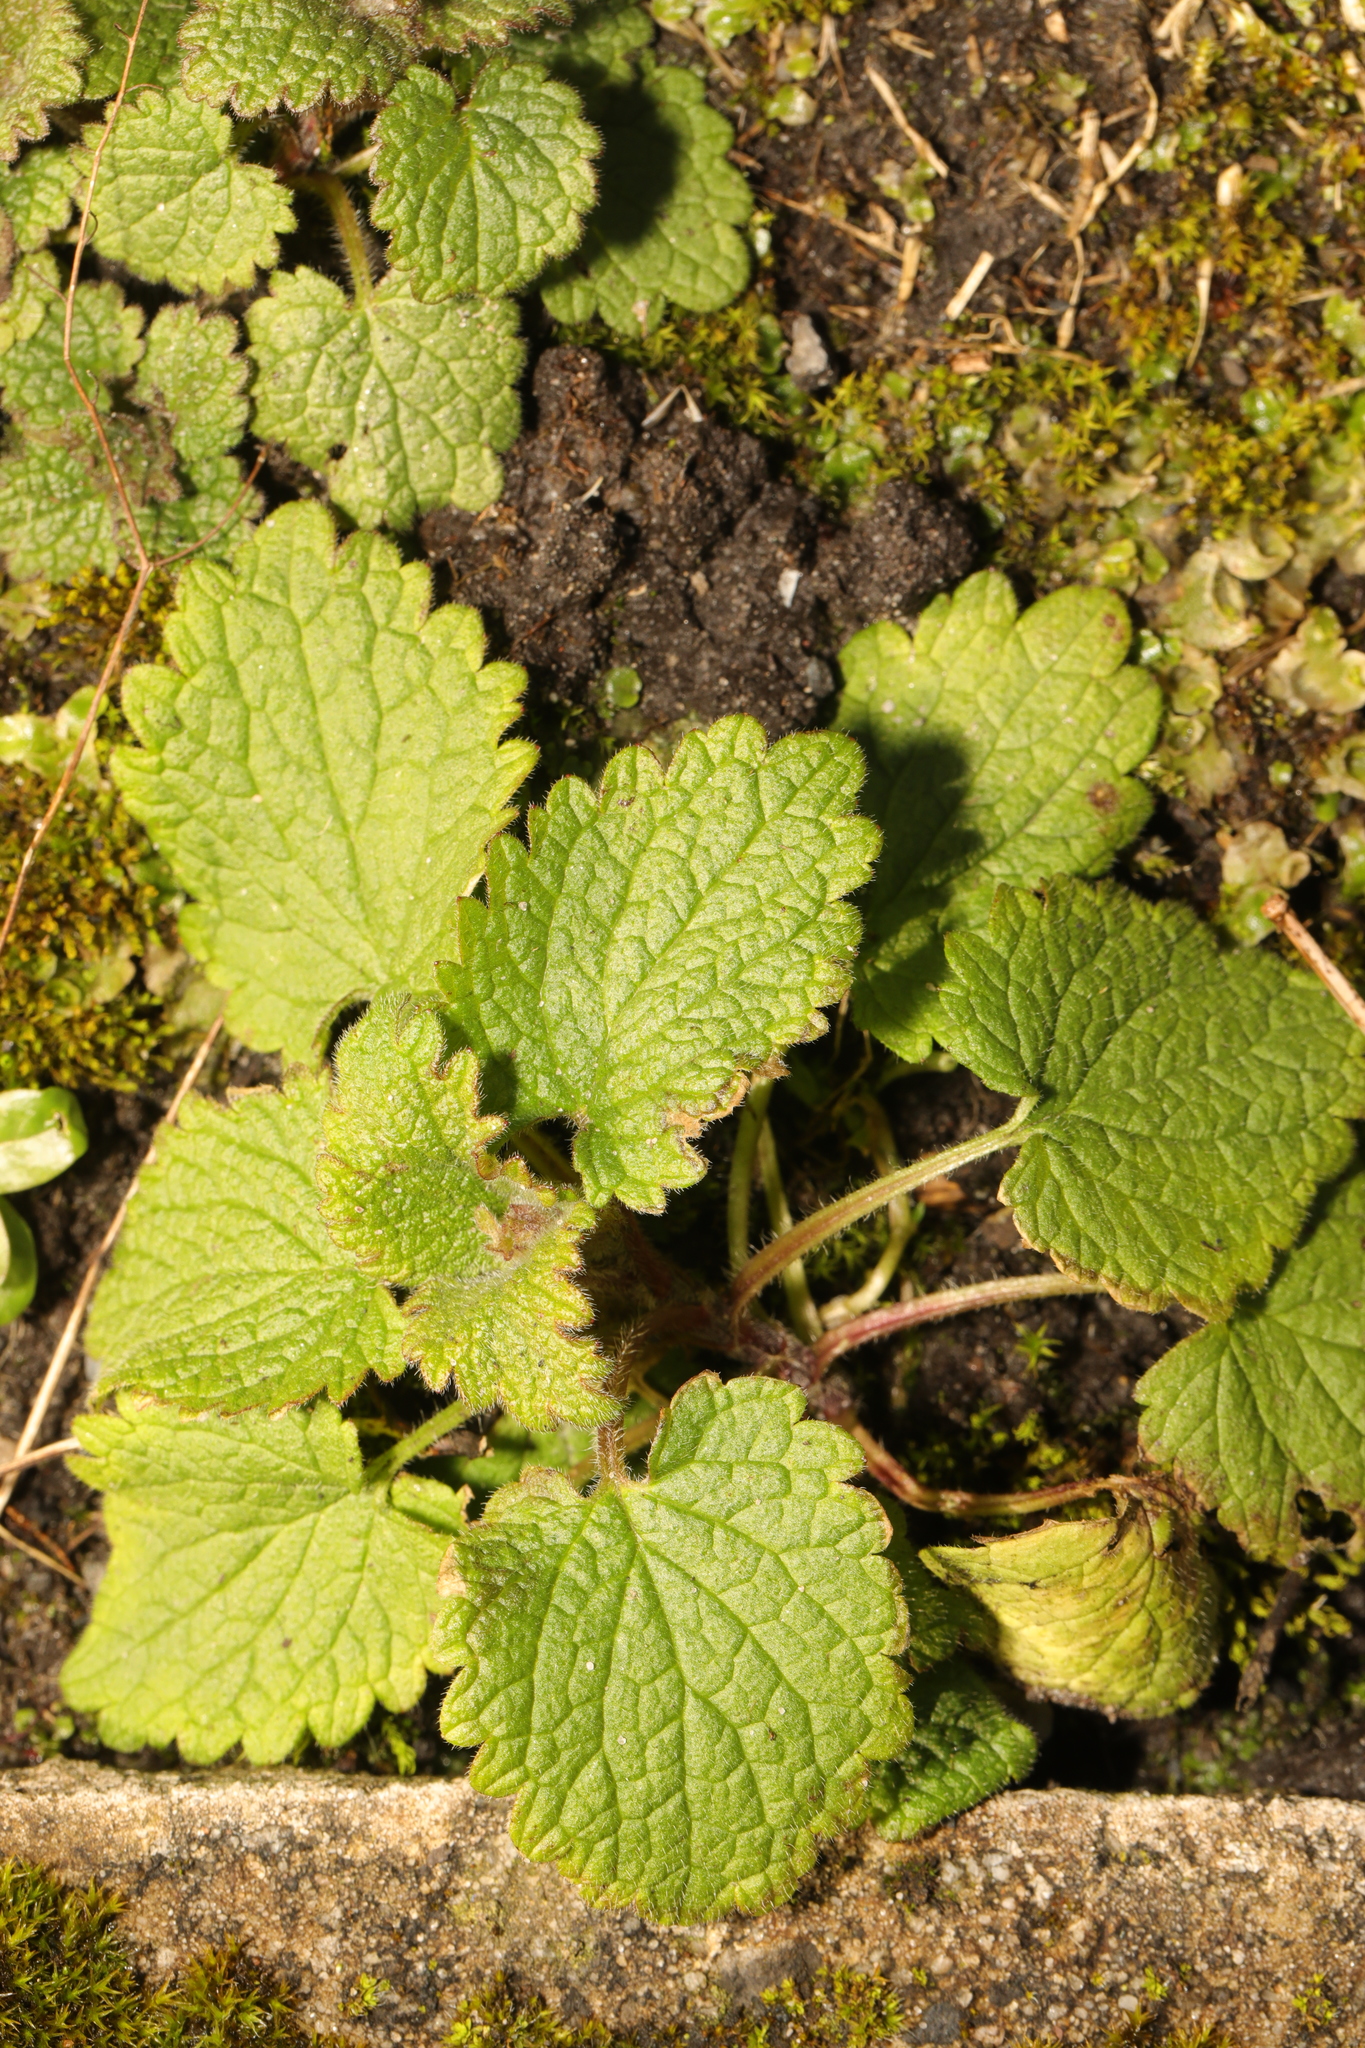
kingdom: Plantae
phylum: Tracheophyta
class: Magnoliopsida
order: Lamiales
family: Lamiaceae
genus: Lamium
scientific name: Lamium purpureum
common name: Red dead-nettle
